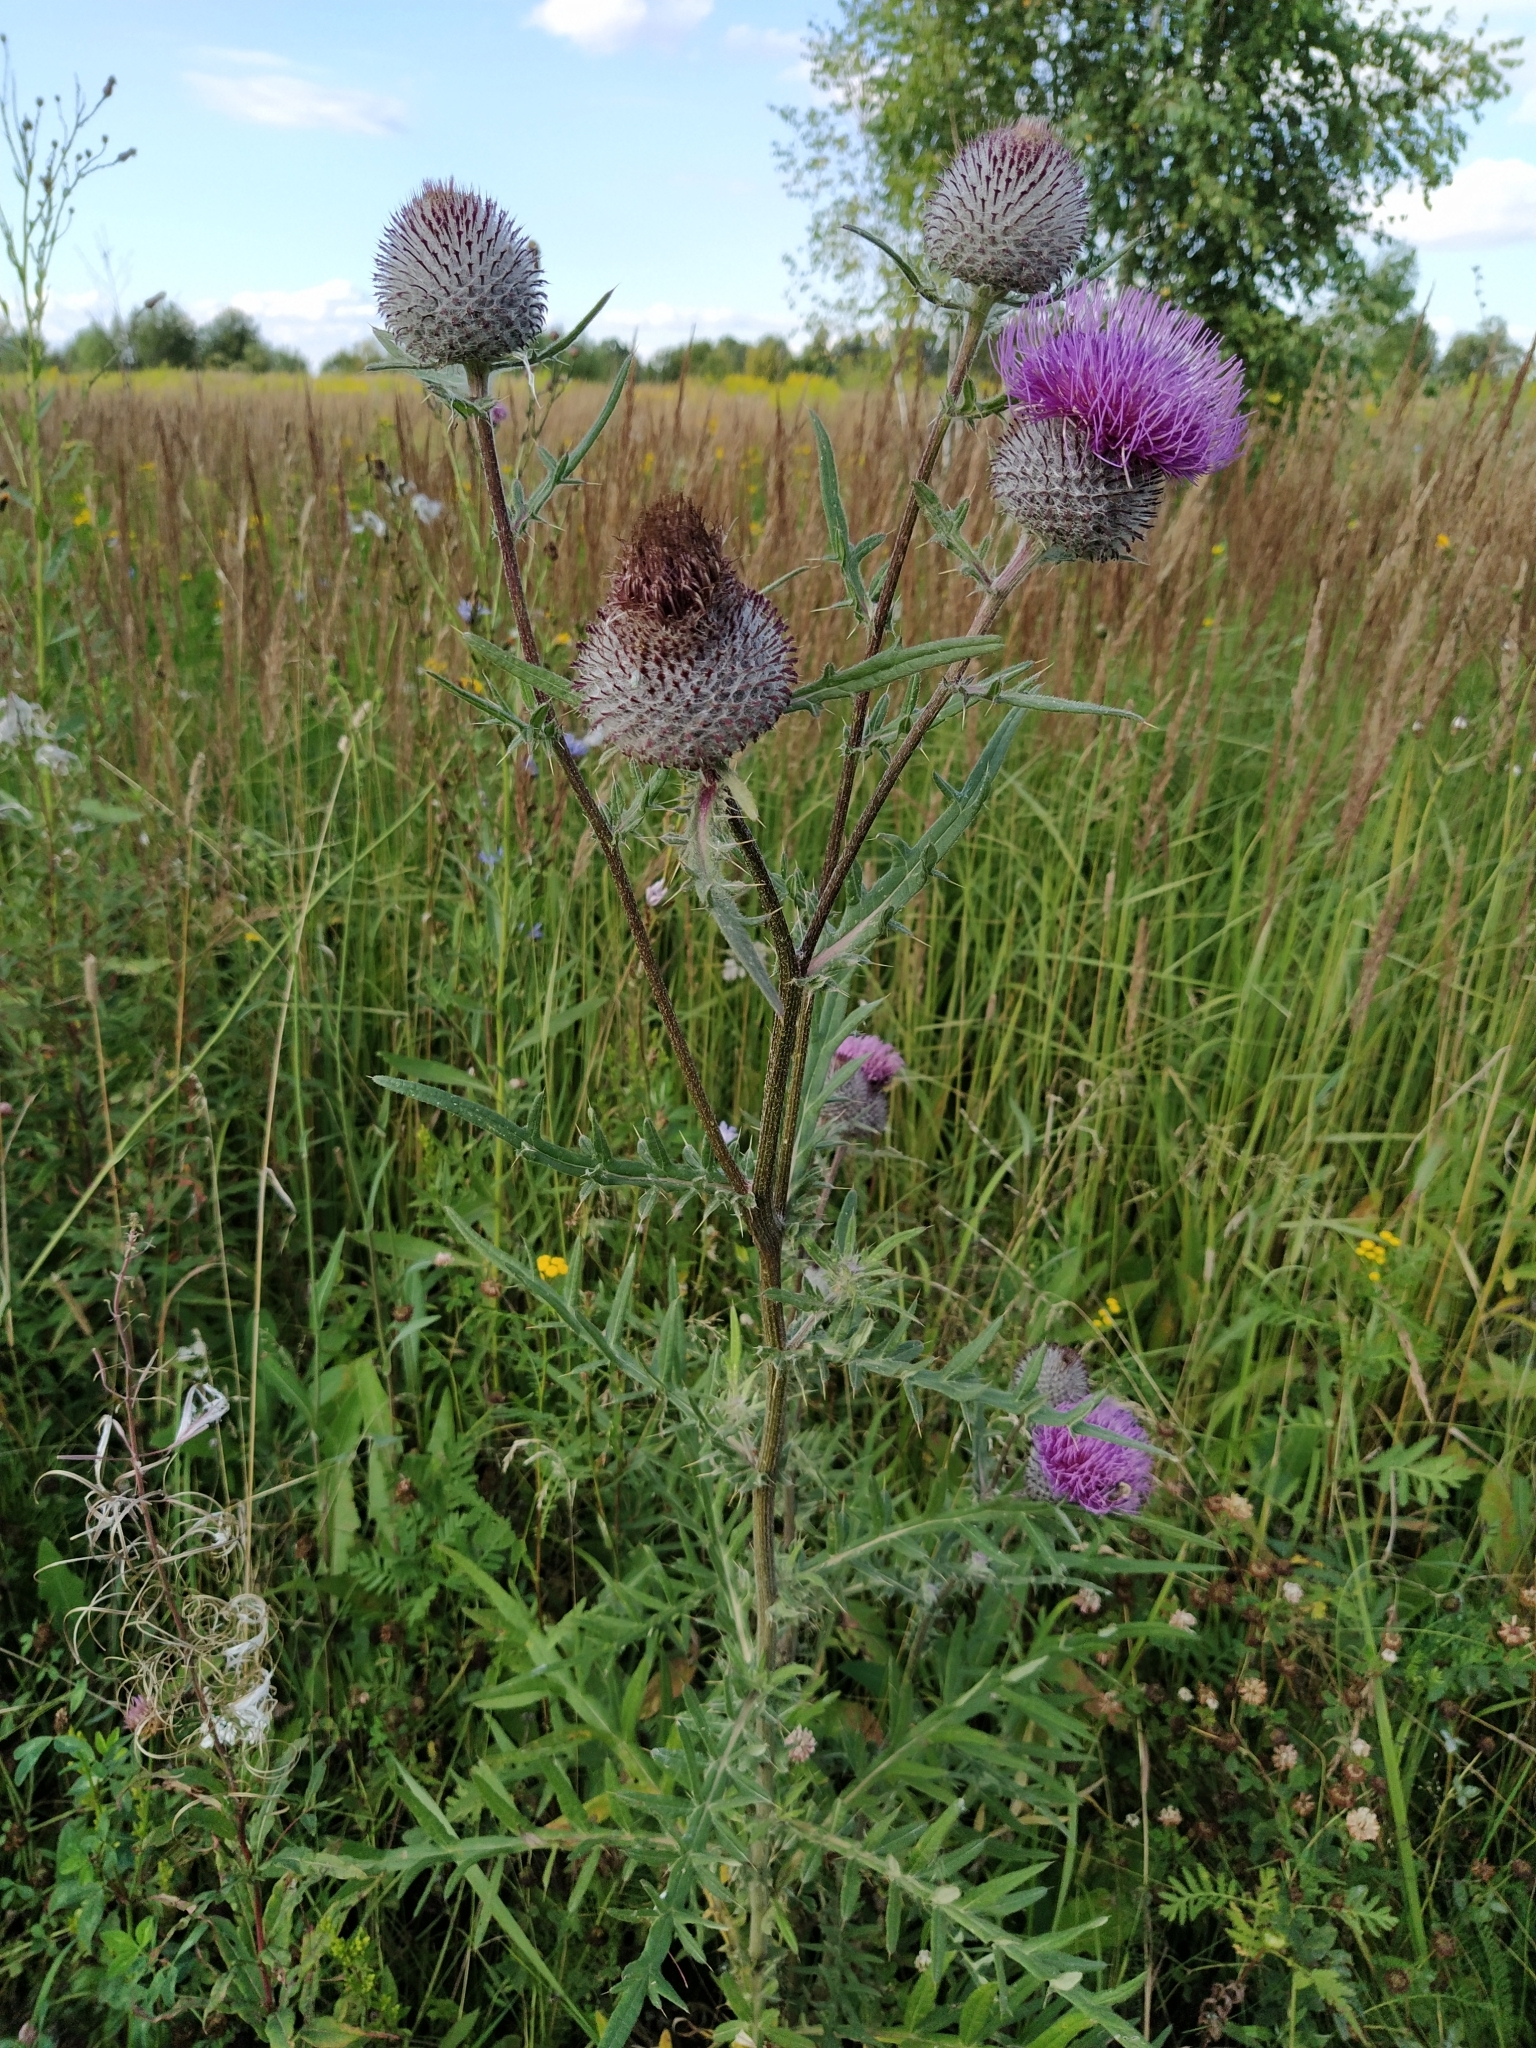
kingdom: Plantae
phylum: Tracheophyta
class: Magnoliopsida
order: Asterales
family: Asteraceae
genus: Lophiolepis
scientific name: Lophiolepis decussata
